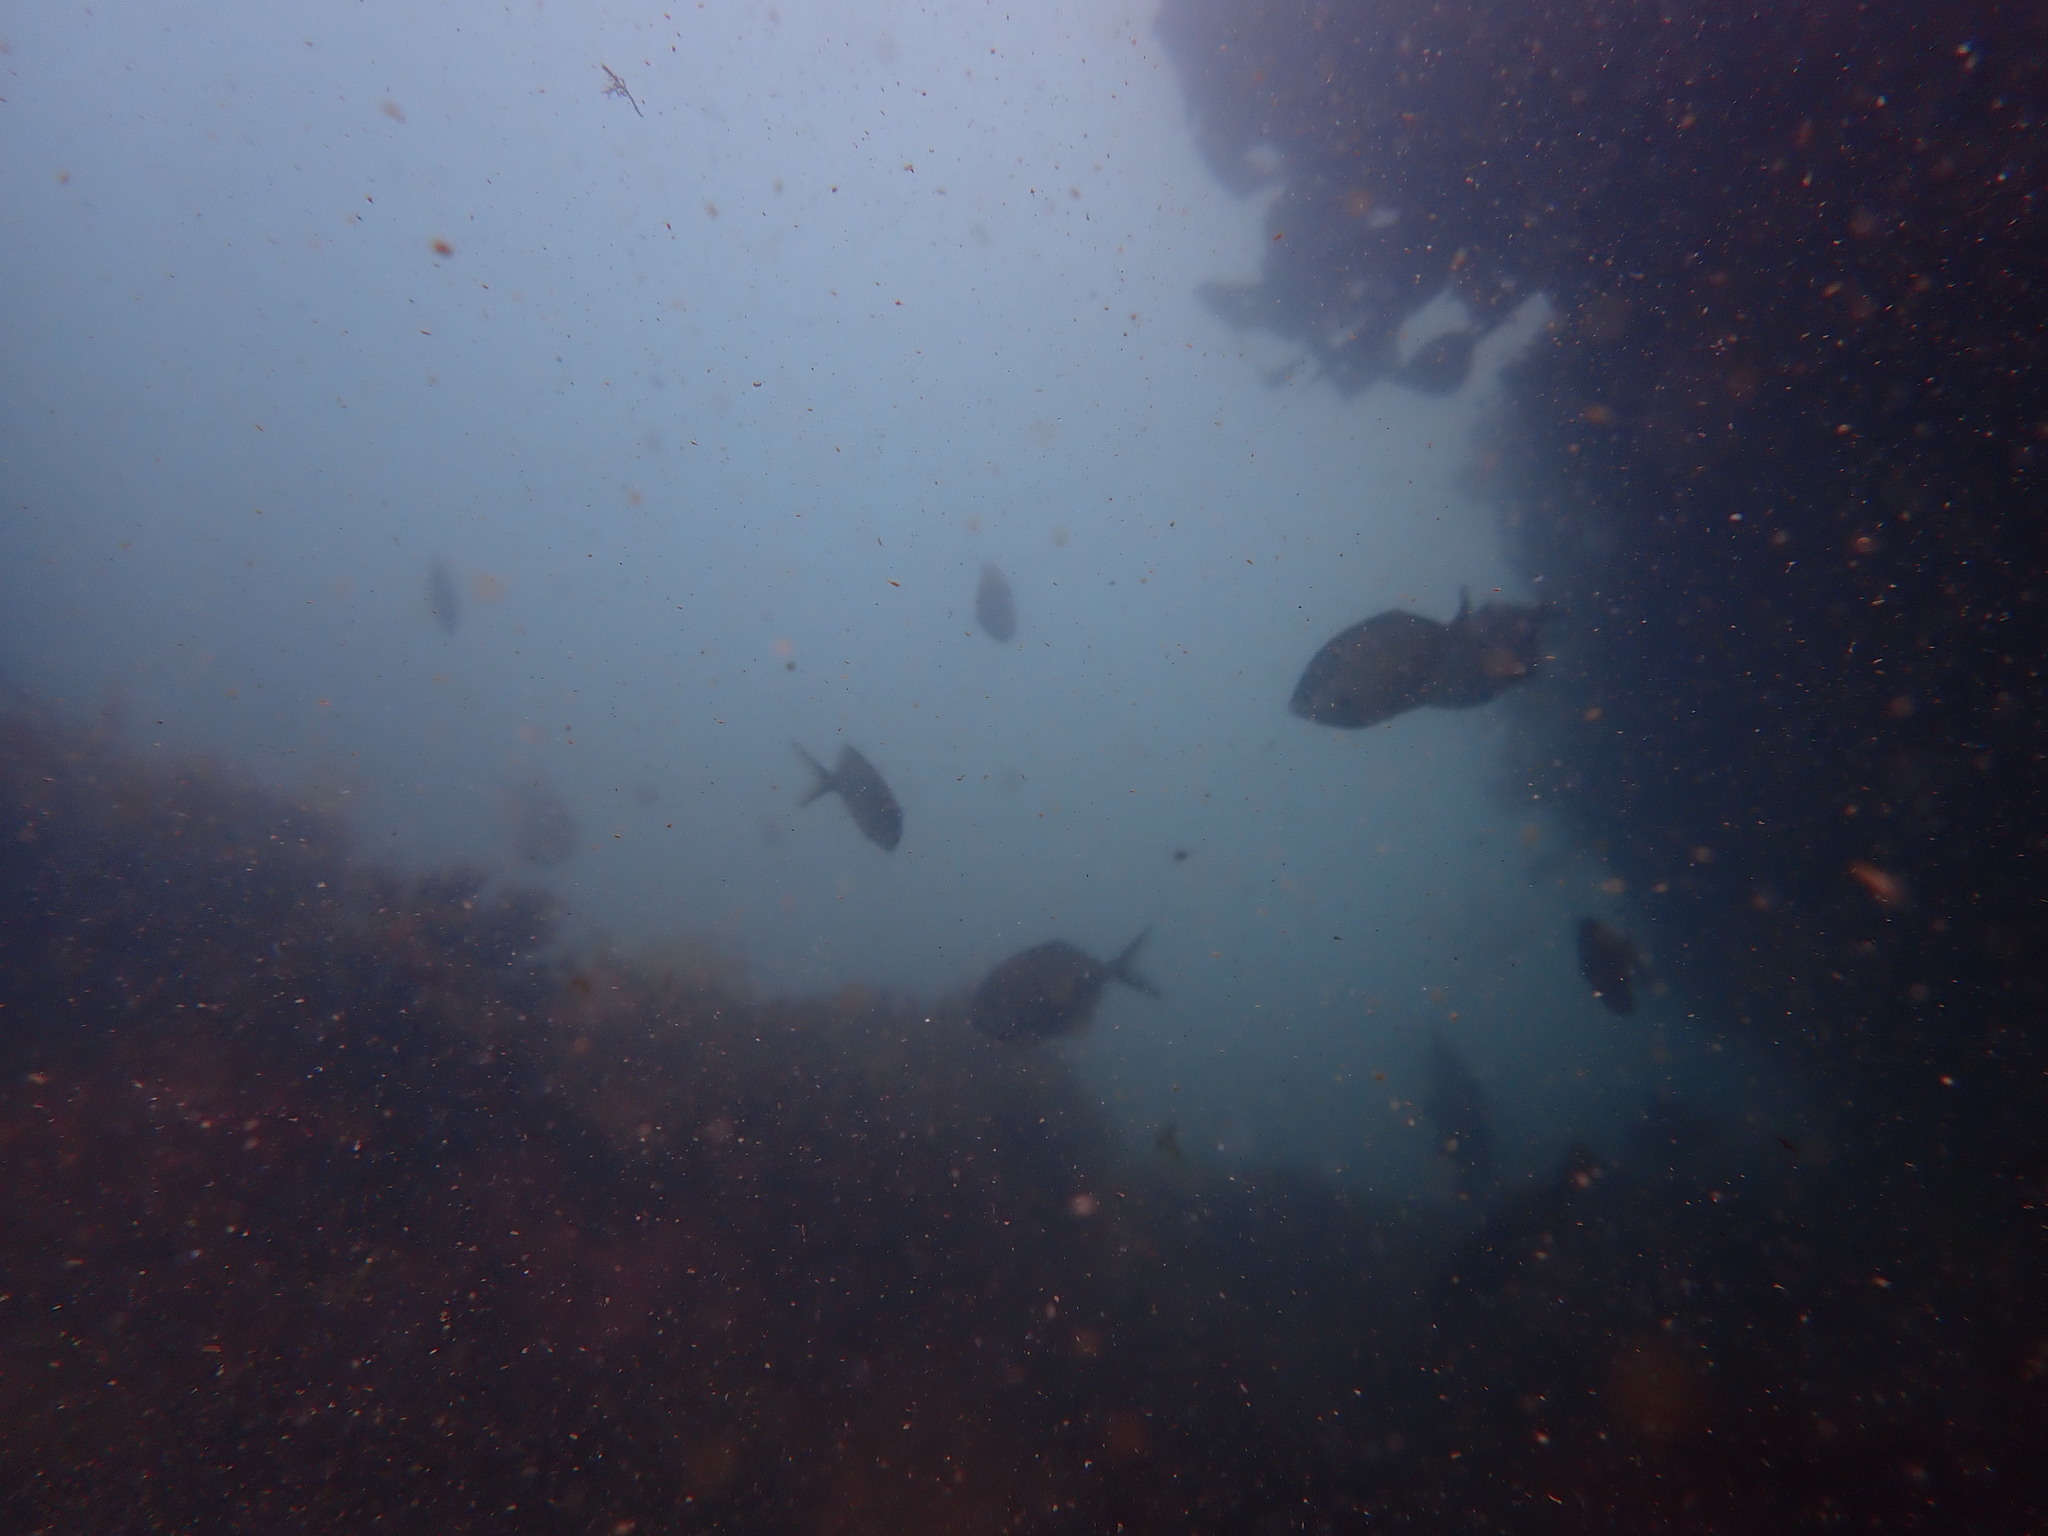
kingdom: Animalia
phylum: Chordata
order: Perciformes
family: Kyphosidae
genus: Scorpis
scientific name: Scorpis lineolata
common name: Sweep
